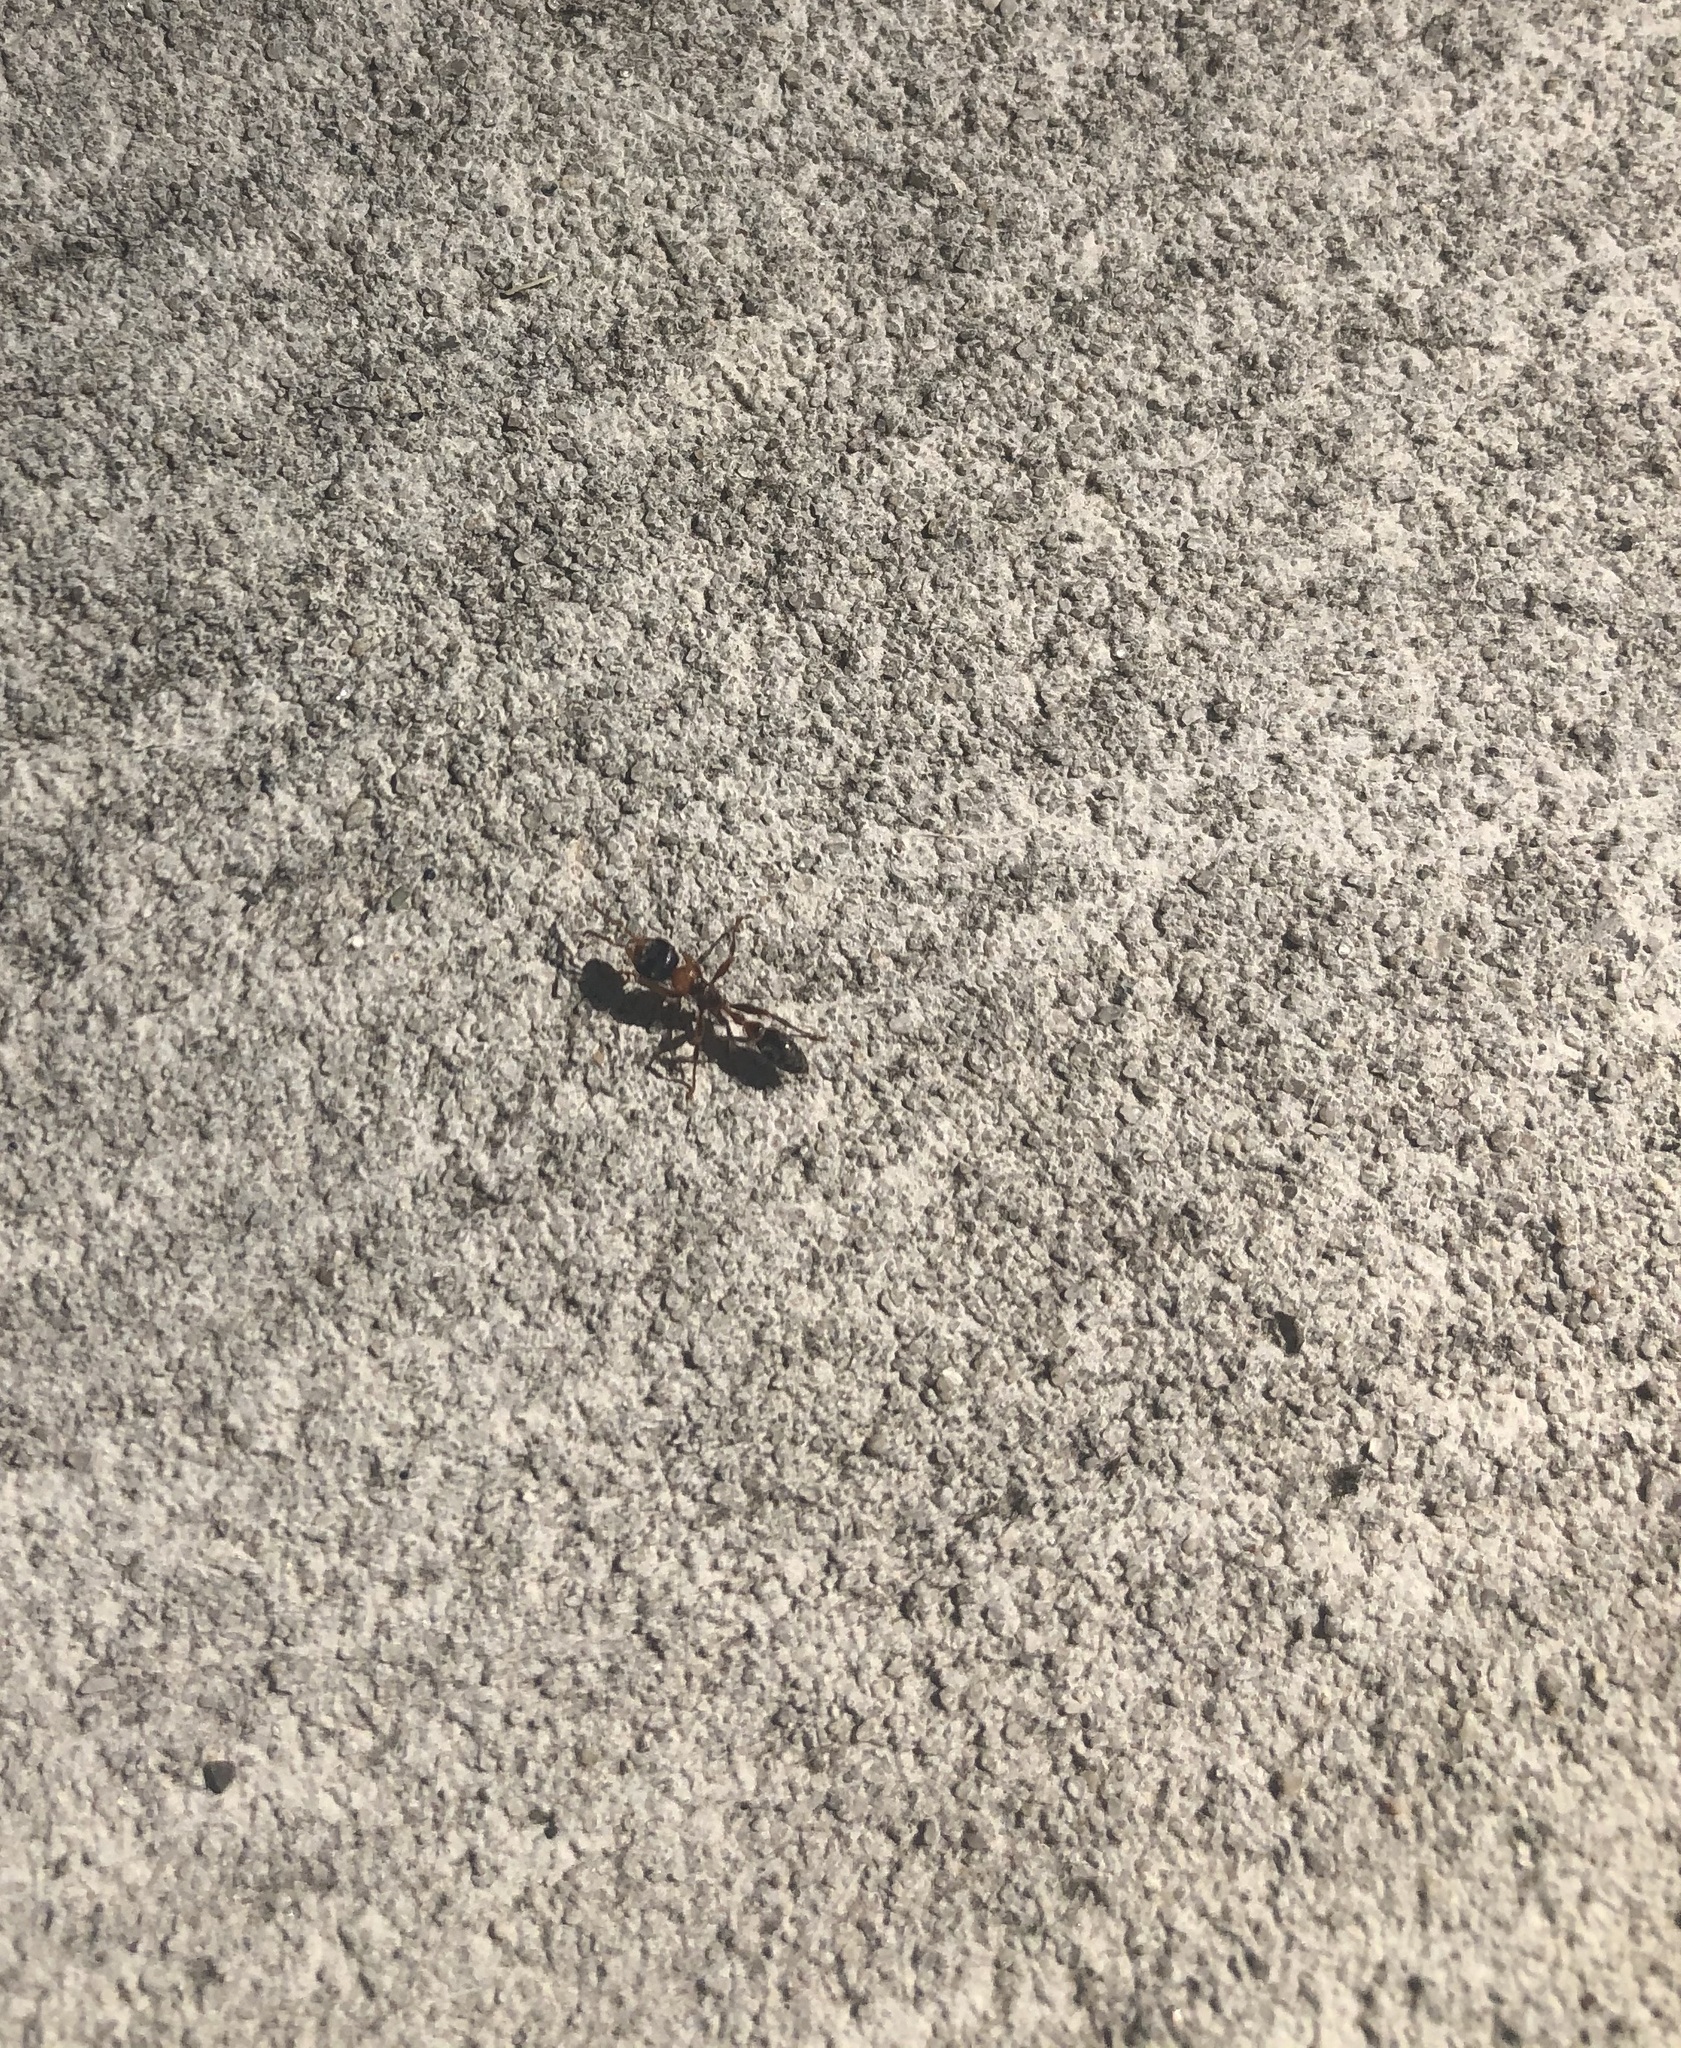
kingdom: Animalia
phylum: Arthropoda
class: Insecta
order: Hymenoptera
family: Formicidae
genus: Pseudomyrmex
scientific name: Pseudomyrmex gracilis
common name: Graceful twig ant
